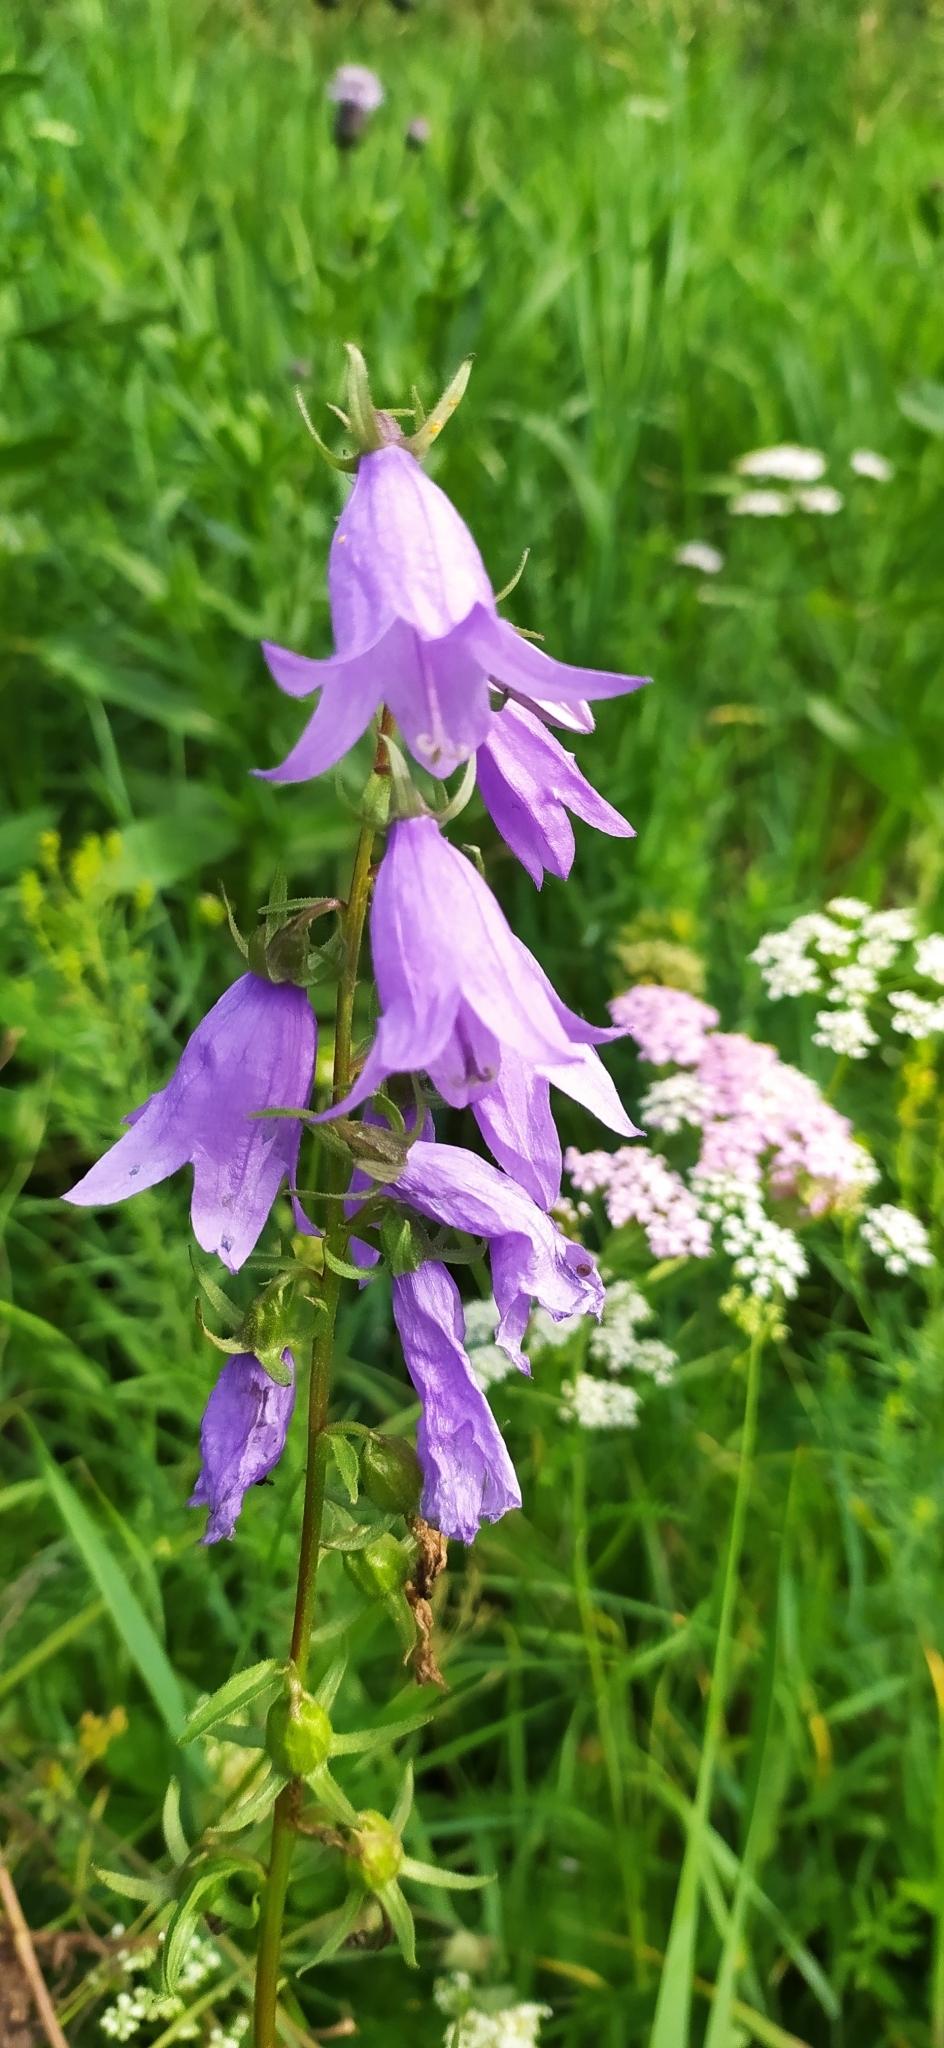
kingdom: Plantae
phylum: Tracheophyta
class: Magnoliopsida
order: Asterales
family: Campanulaceae
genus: Campanula
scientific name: Campanula rapunculoides
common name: Creeping bellflower
